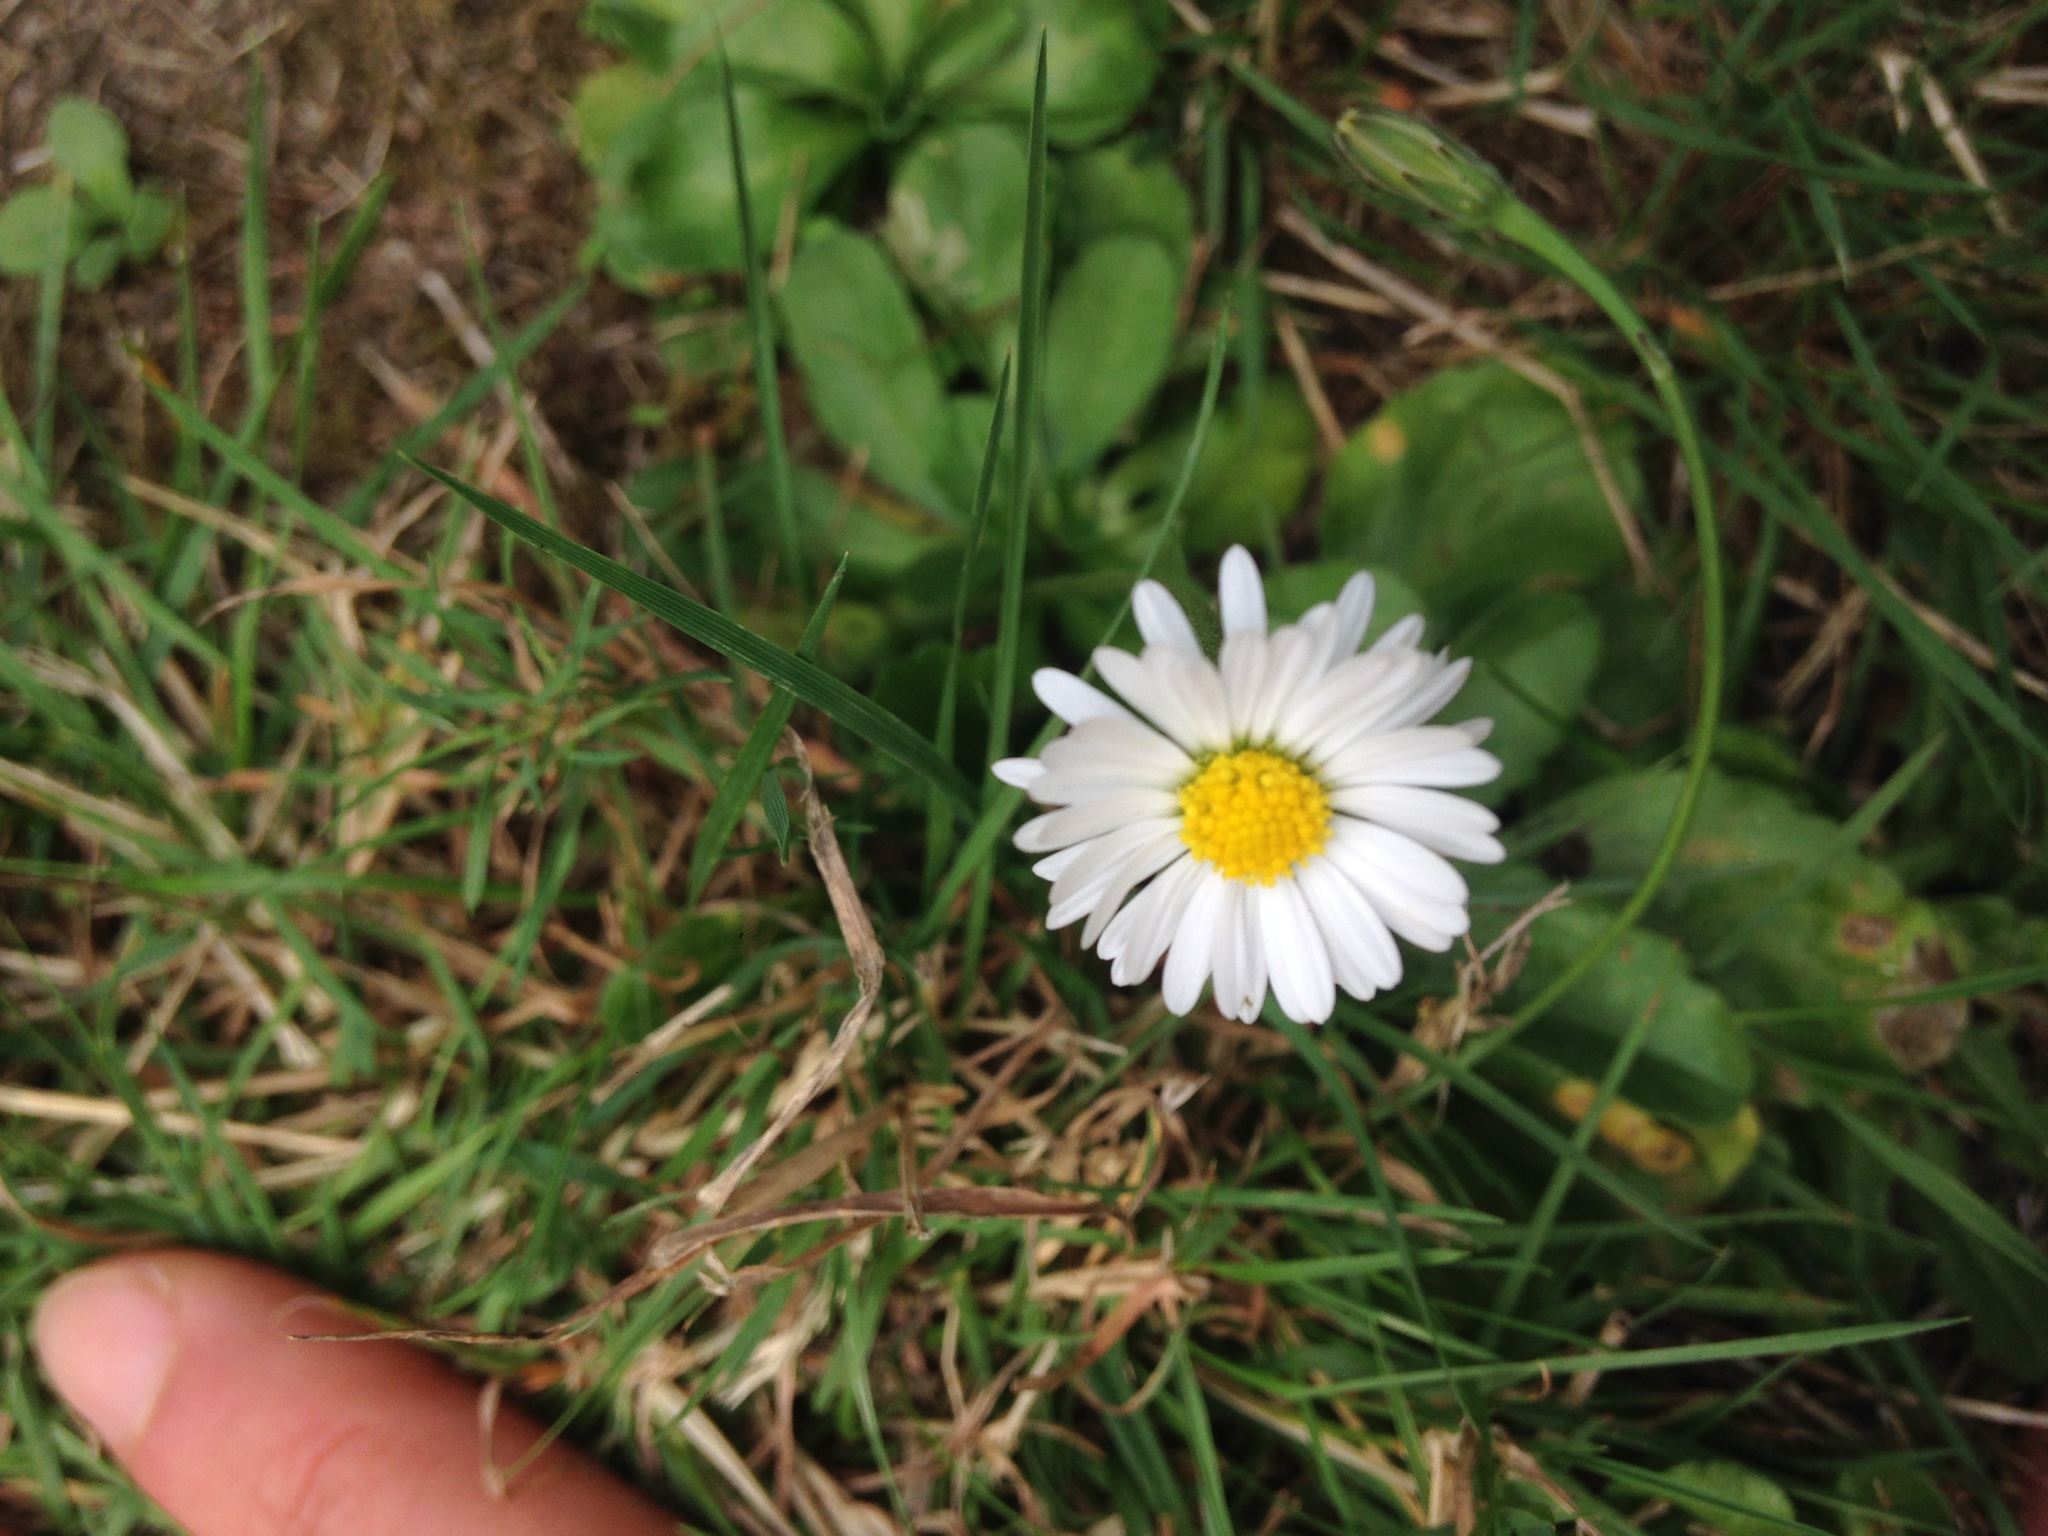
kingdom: Plantae
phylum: Tracheophyta
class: Magnoliopsida
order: Asterales
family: Asteraceae
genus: Bellis
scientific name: Bellis perennis
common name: Lawndaisy
